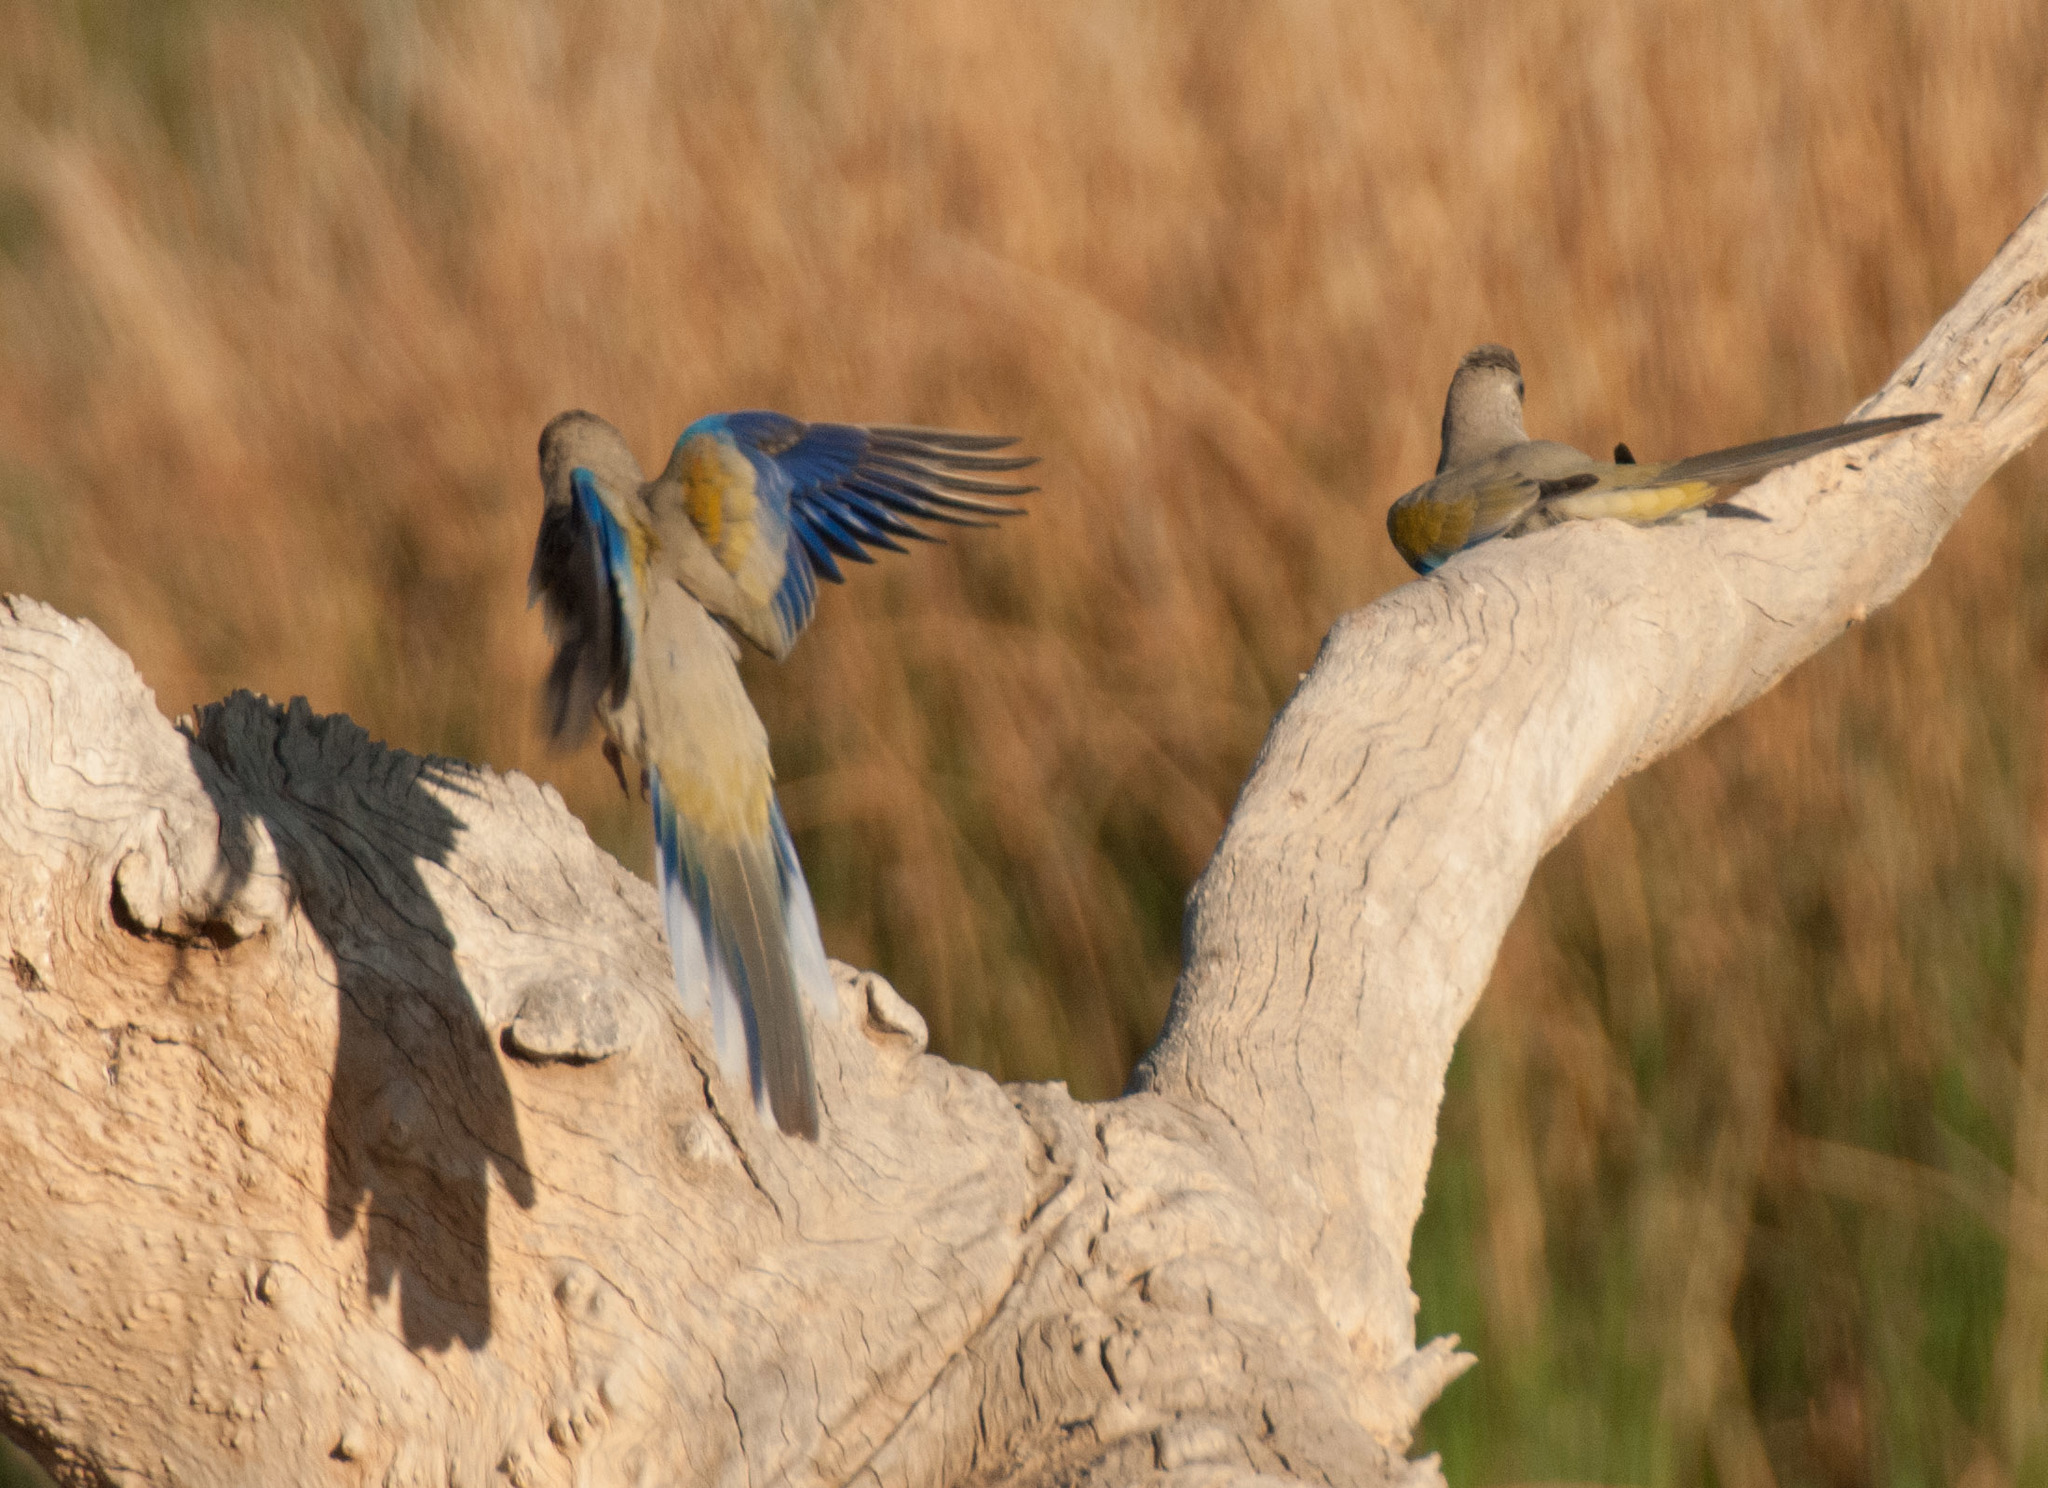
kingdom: Animalia
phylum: Chordata
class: Aves
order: Psittaciformes
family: Psittacidae
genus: Northiella
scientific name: Northiella haematogaster
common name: Bluebonnet
